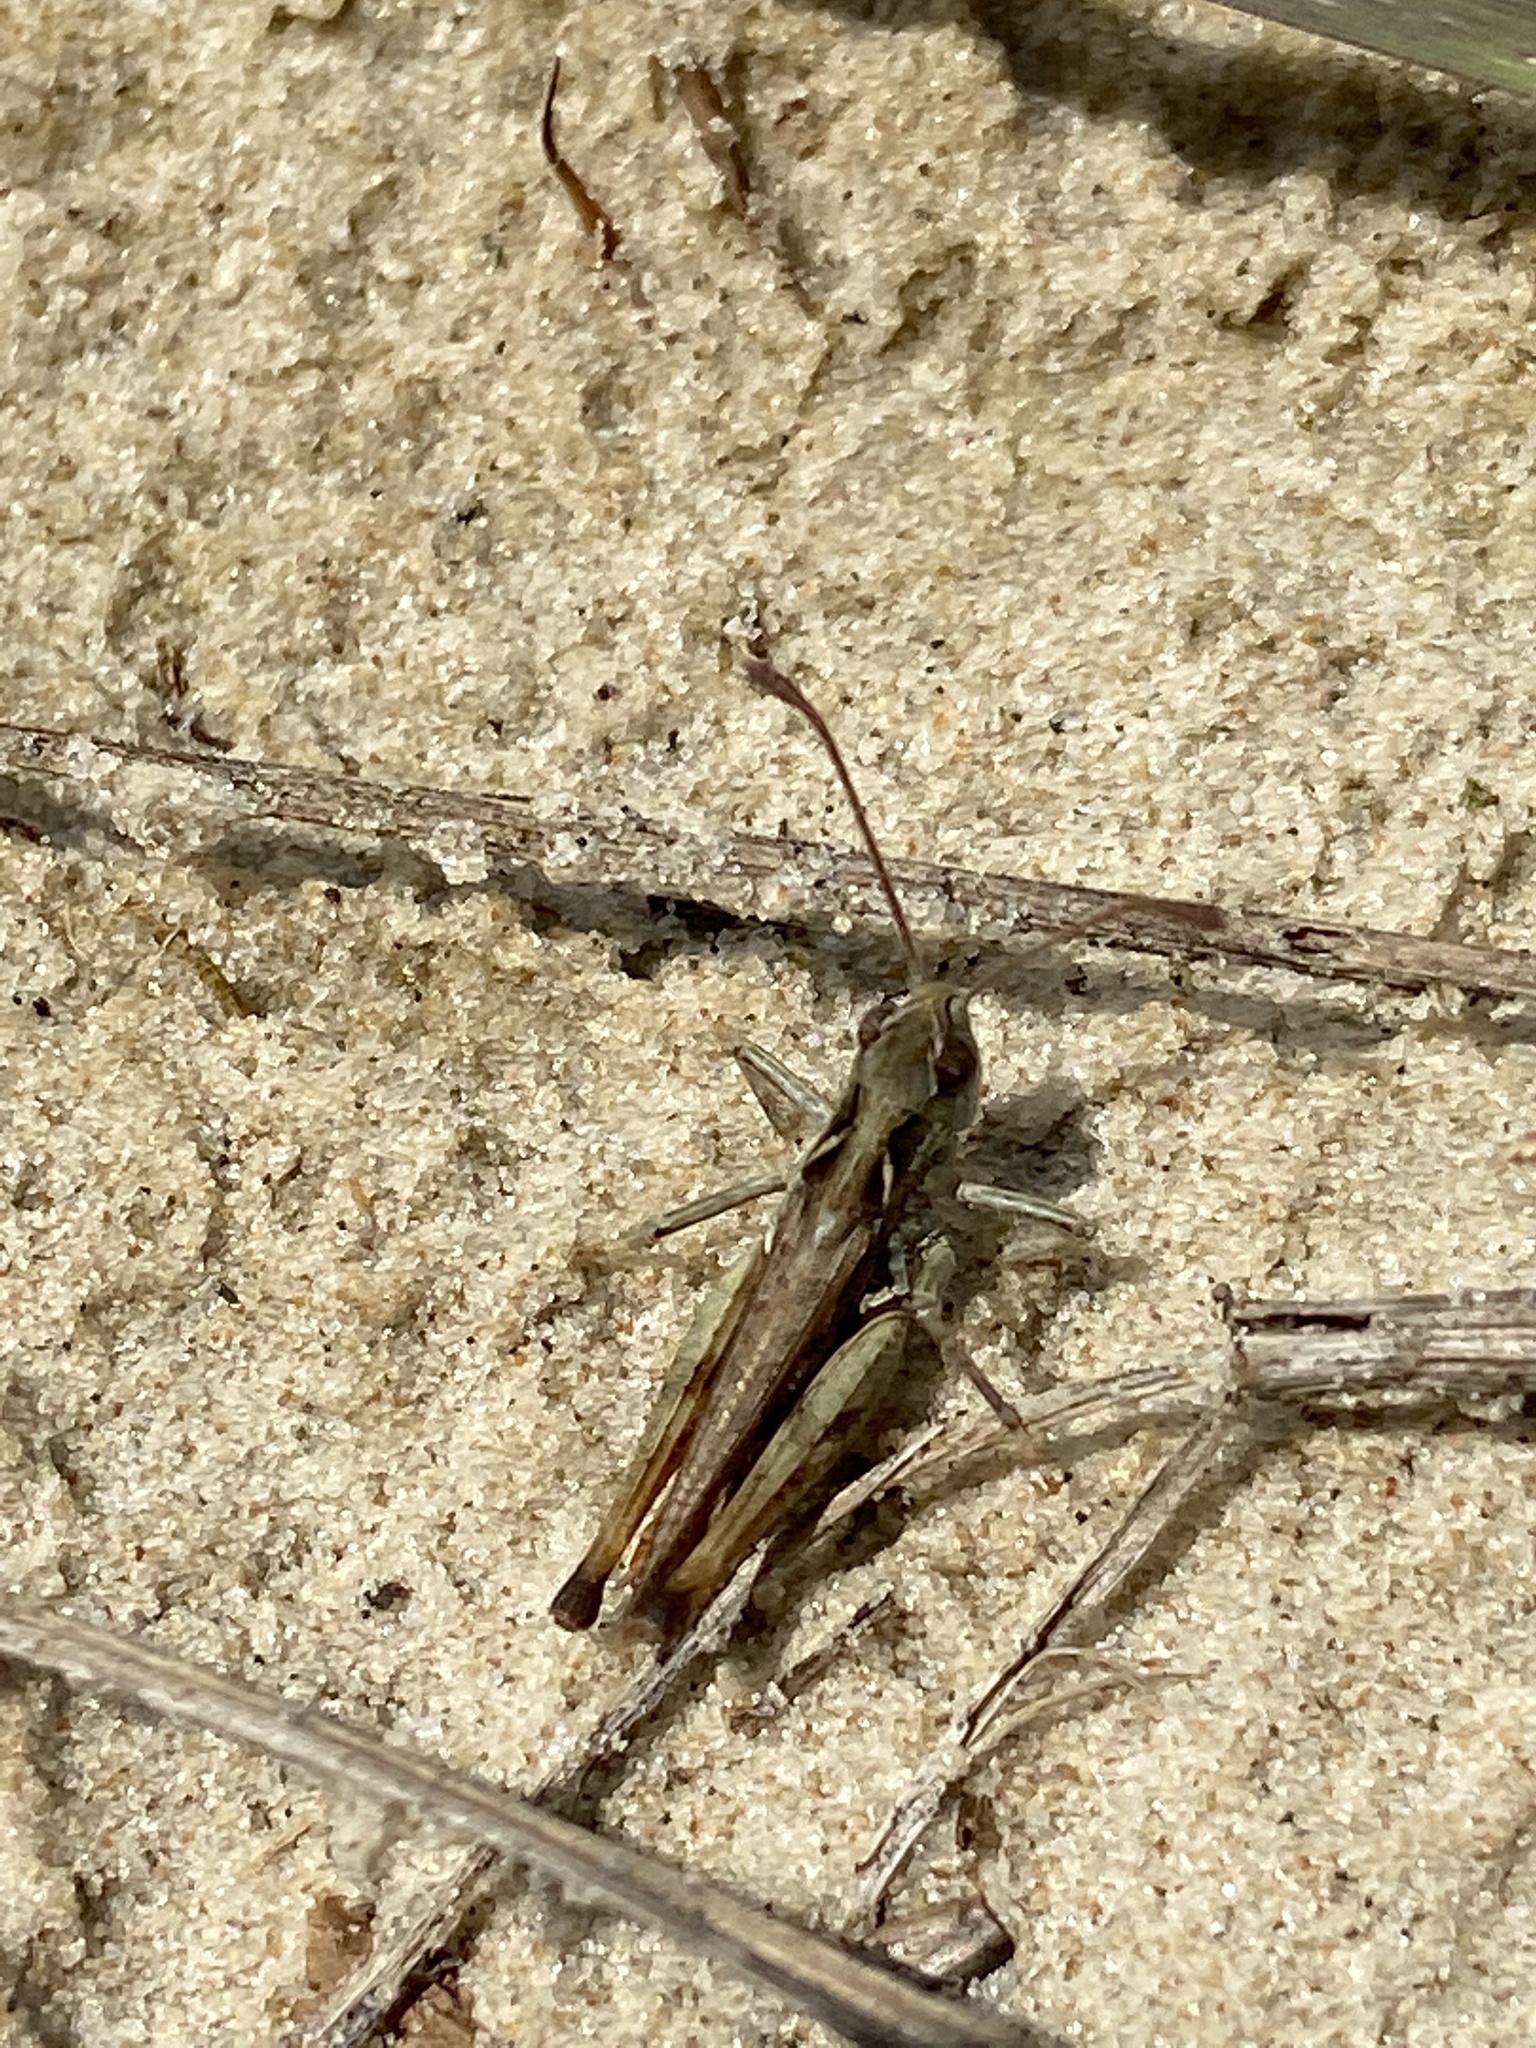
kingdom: Animalia
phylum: Arthropoda
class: Insecta
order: Orthoptera
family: Acrididae
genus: Myrmeleotettix
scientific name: Myrmeleotettix maculatus
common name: Mottled grasshopper
